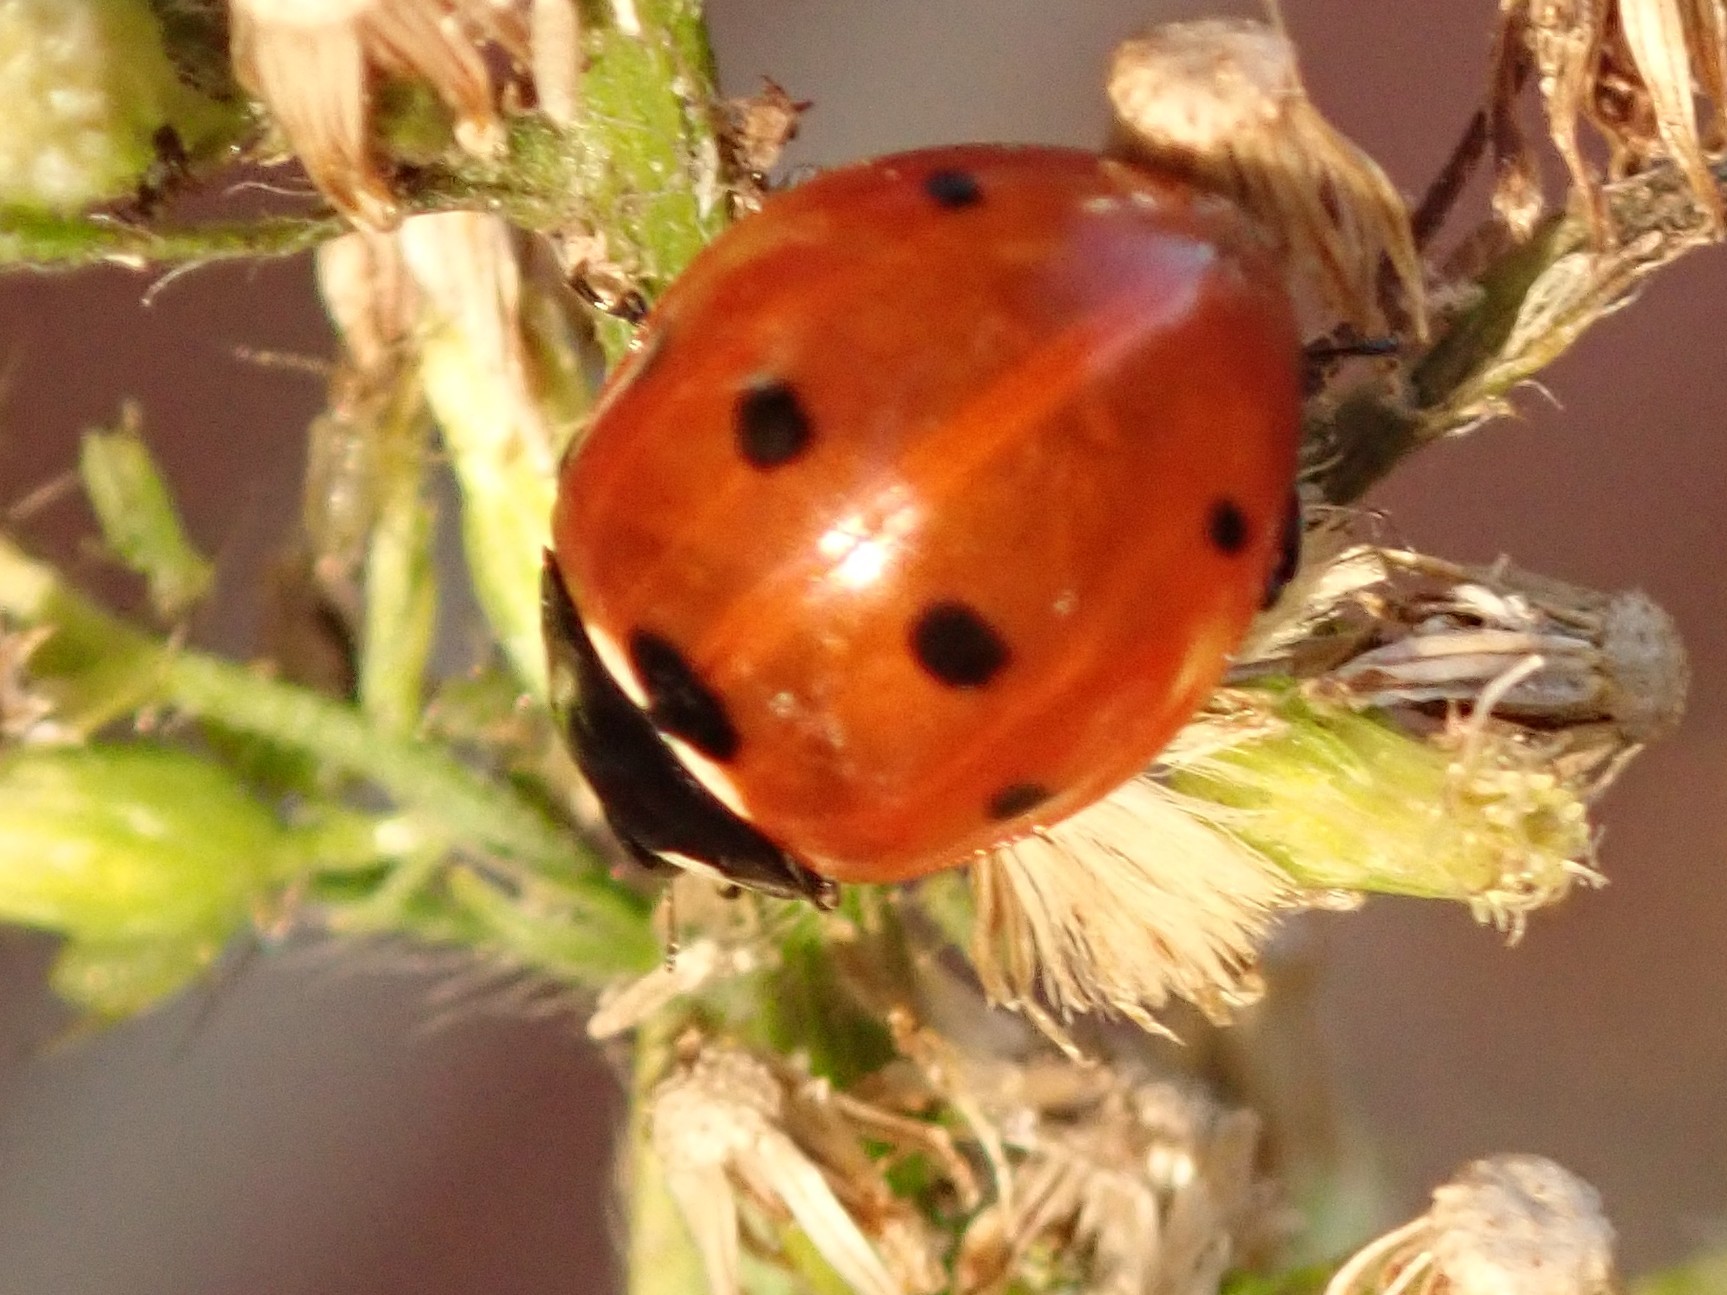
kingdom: Animalia
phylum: Arthropoda
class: Insecta
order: Coleoptera
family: Coccinellidae
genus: Coccinella
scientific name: Coccinella septempunctata
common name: Sevenspotted lady beetle
